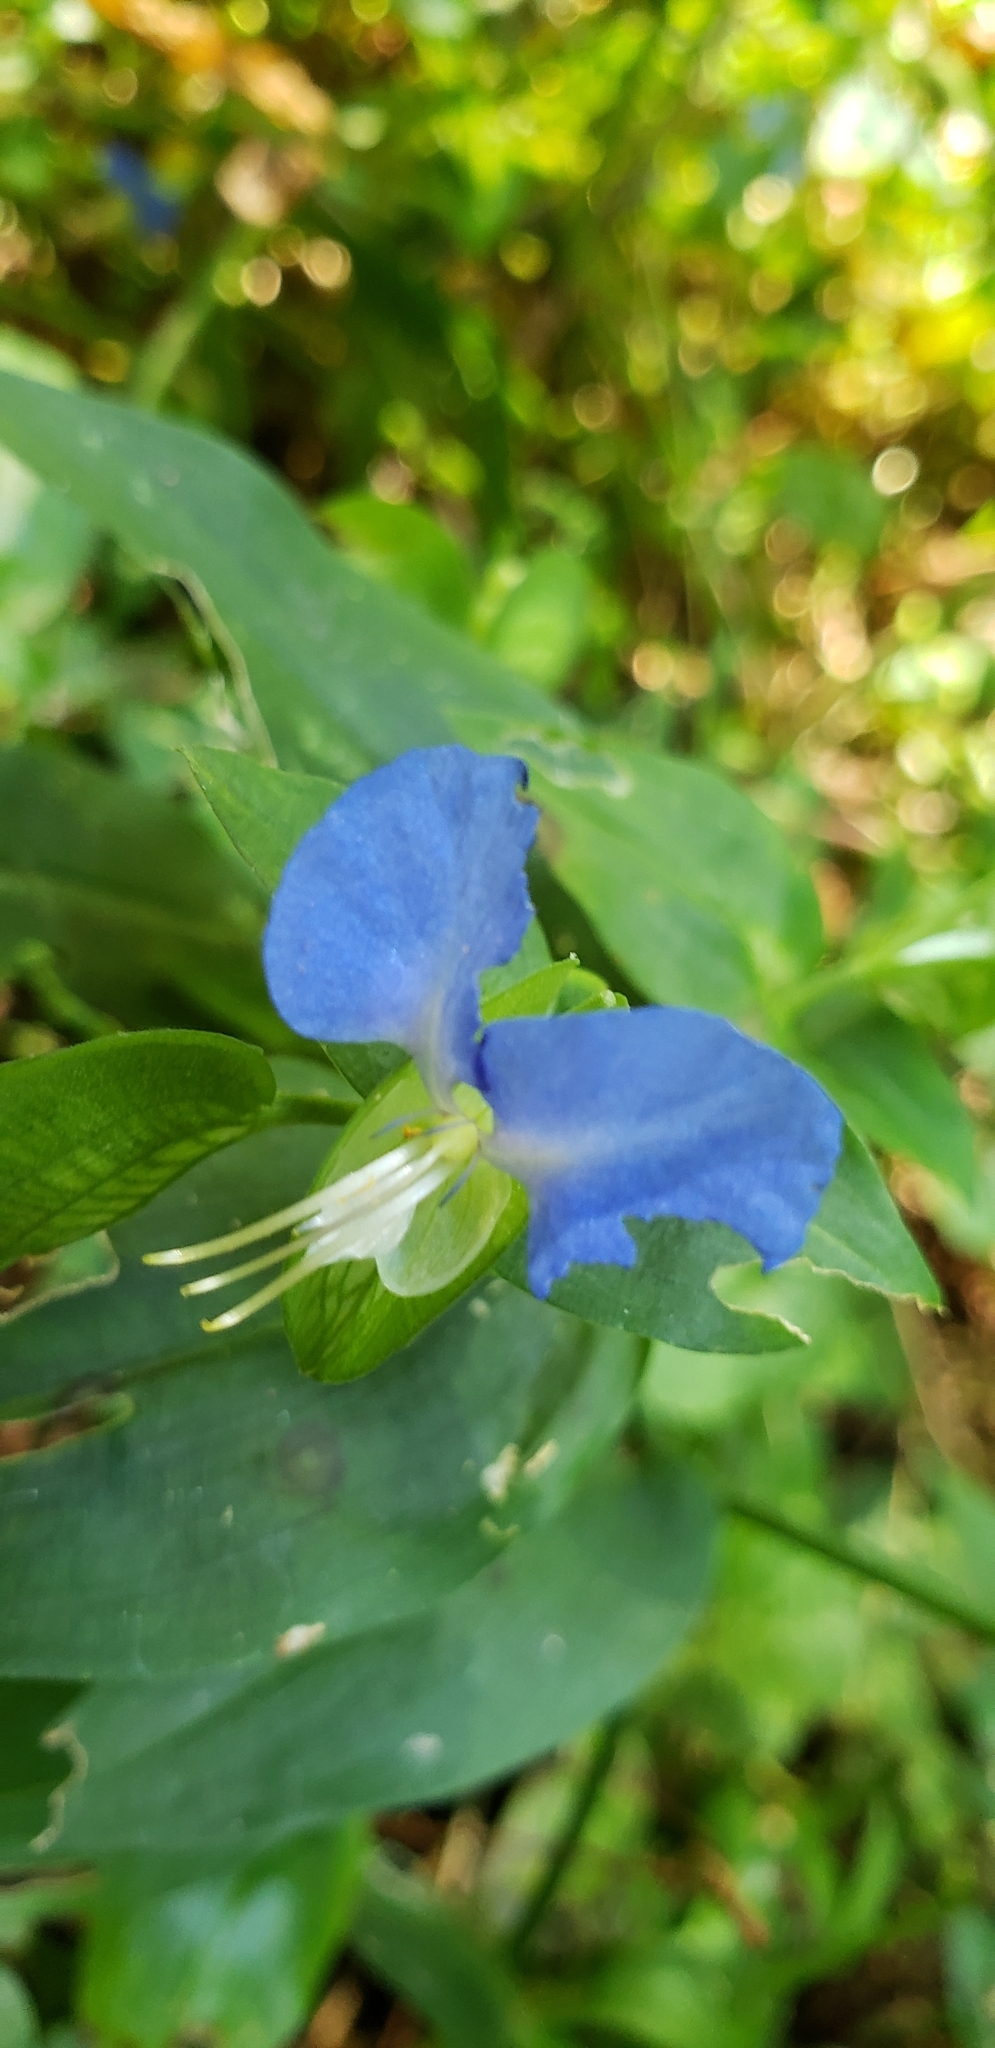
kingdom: Plantae
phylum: Tracheophyta
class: Liliopsida
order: Commelinales
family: Commelinaceae
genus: Commelina
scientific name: Commelina communis
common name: Asiatic dayflower
